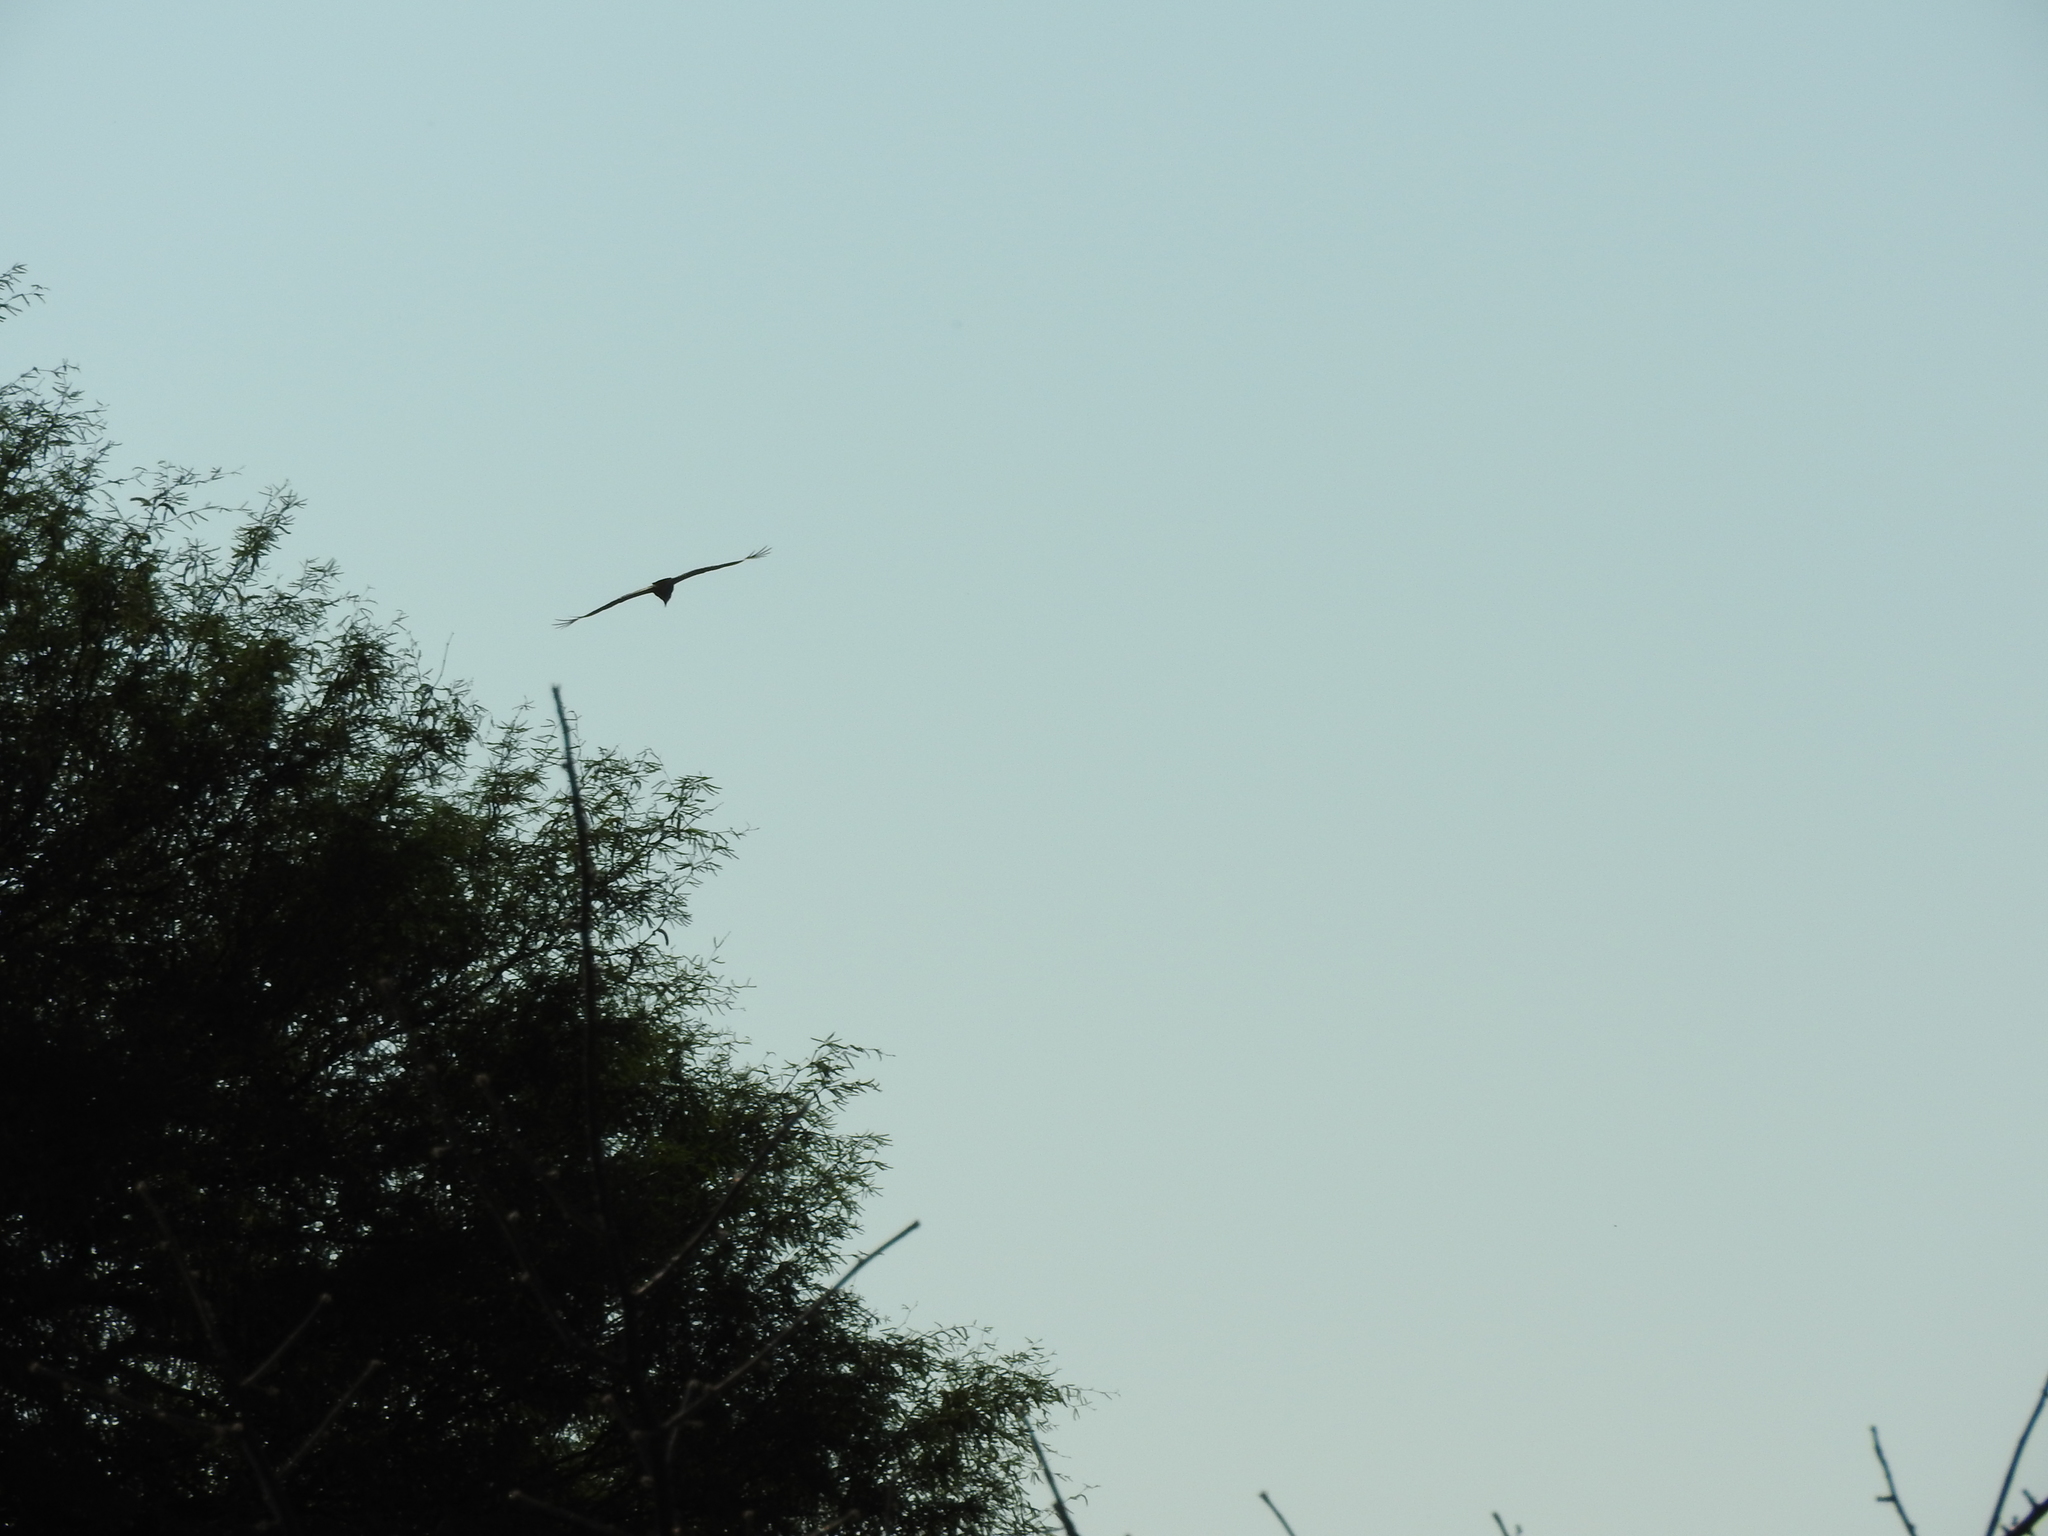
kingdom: Animalia
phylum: Chordata
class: Aves
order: Falconiformes
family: Falconidae
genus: Caracara
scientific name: Caracara plancus
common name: Southern caracara
